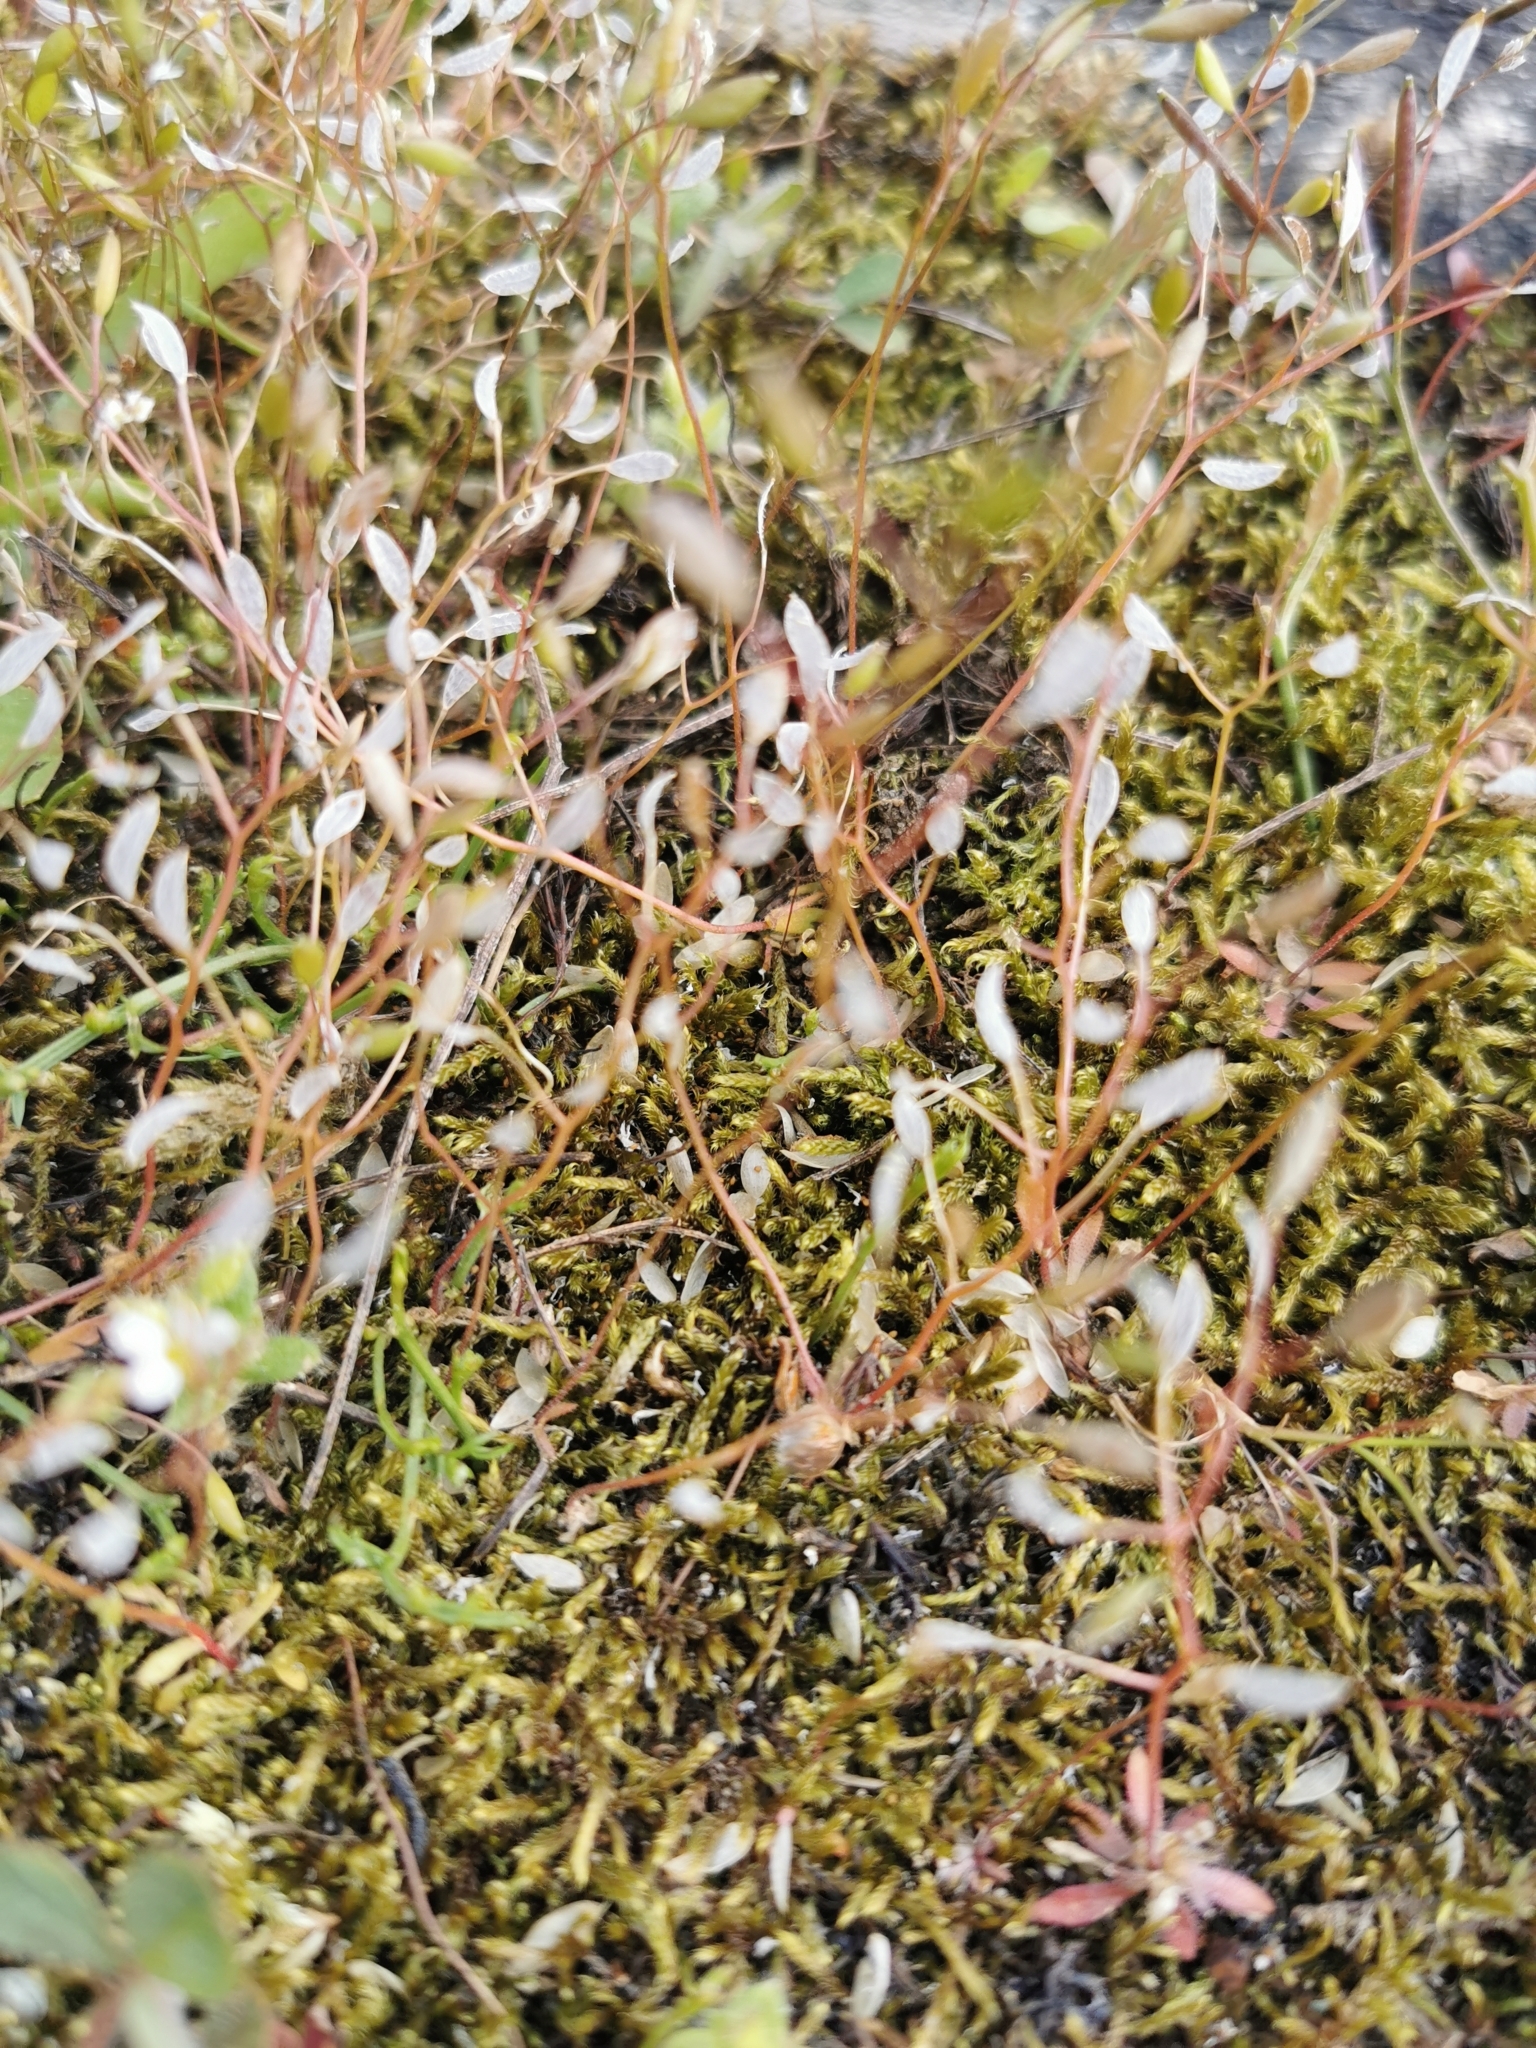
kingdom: Plantae
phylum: Tracheophyta
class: Magnoliopsida
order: Brassicales
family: Brassicaceae
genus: Draba
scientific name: Draba verna
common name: Spring draba
